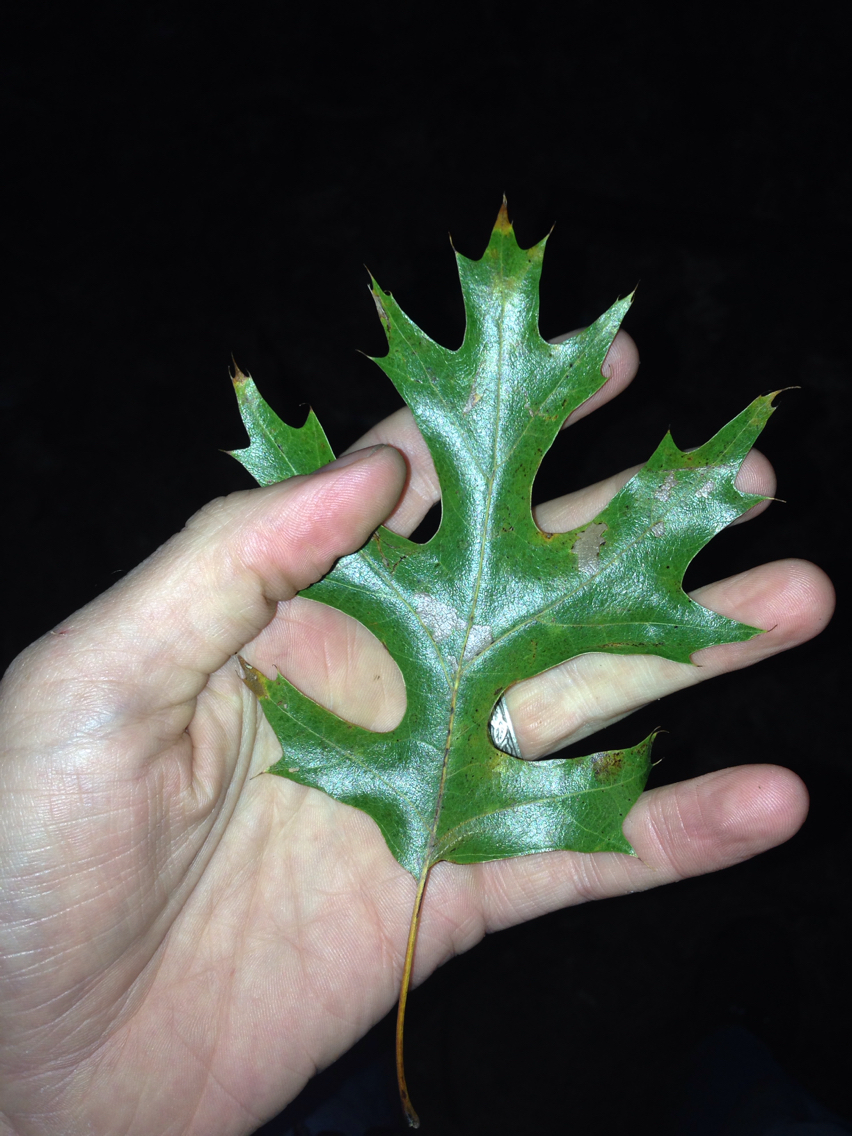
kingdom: Plantae
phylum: Tracheophyta
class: Magnoliopsida
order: Fagales
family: Fagaceae
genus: Quercus
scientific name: Quercus
